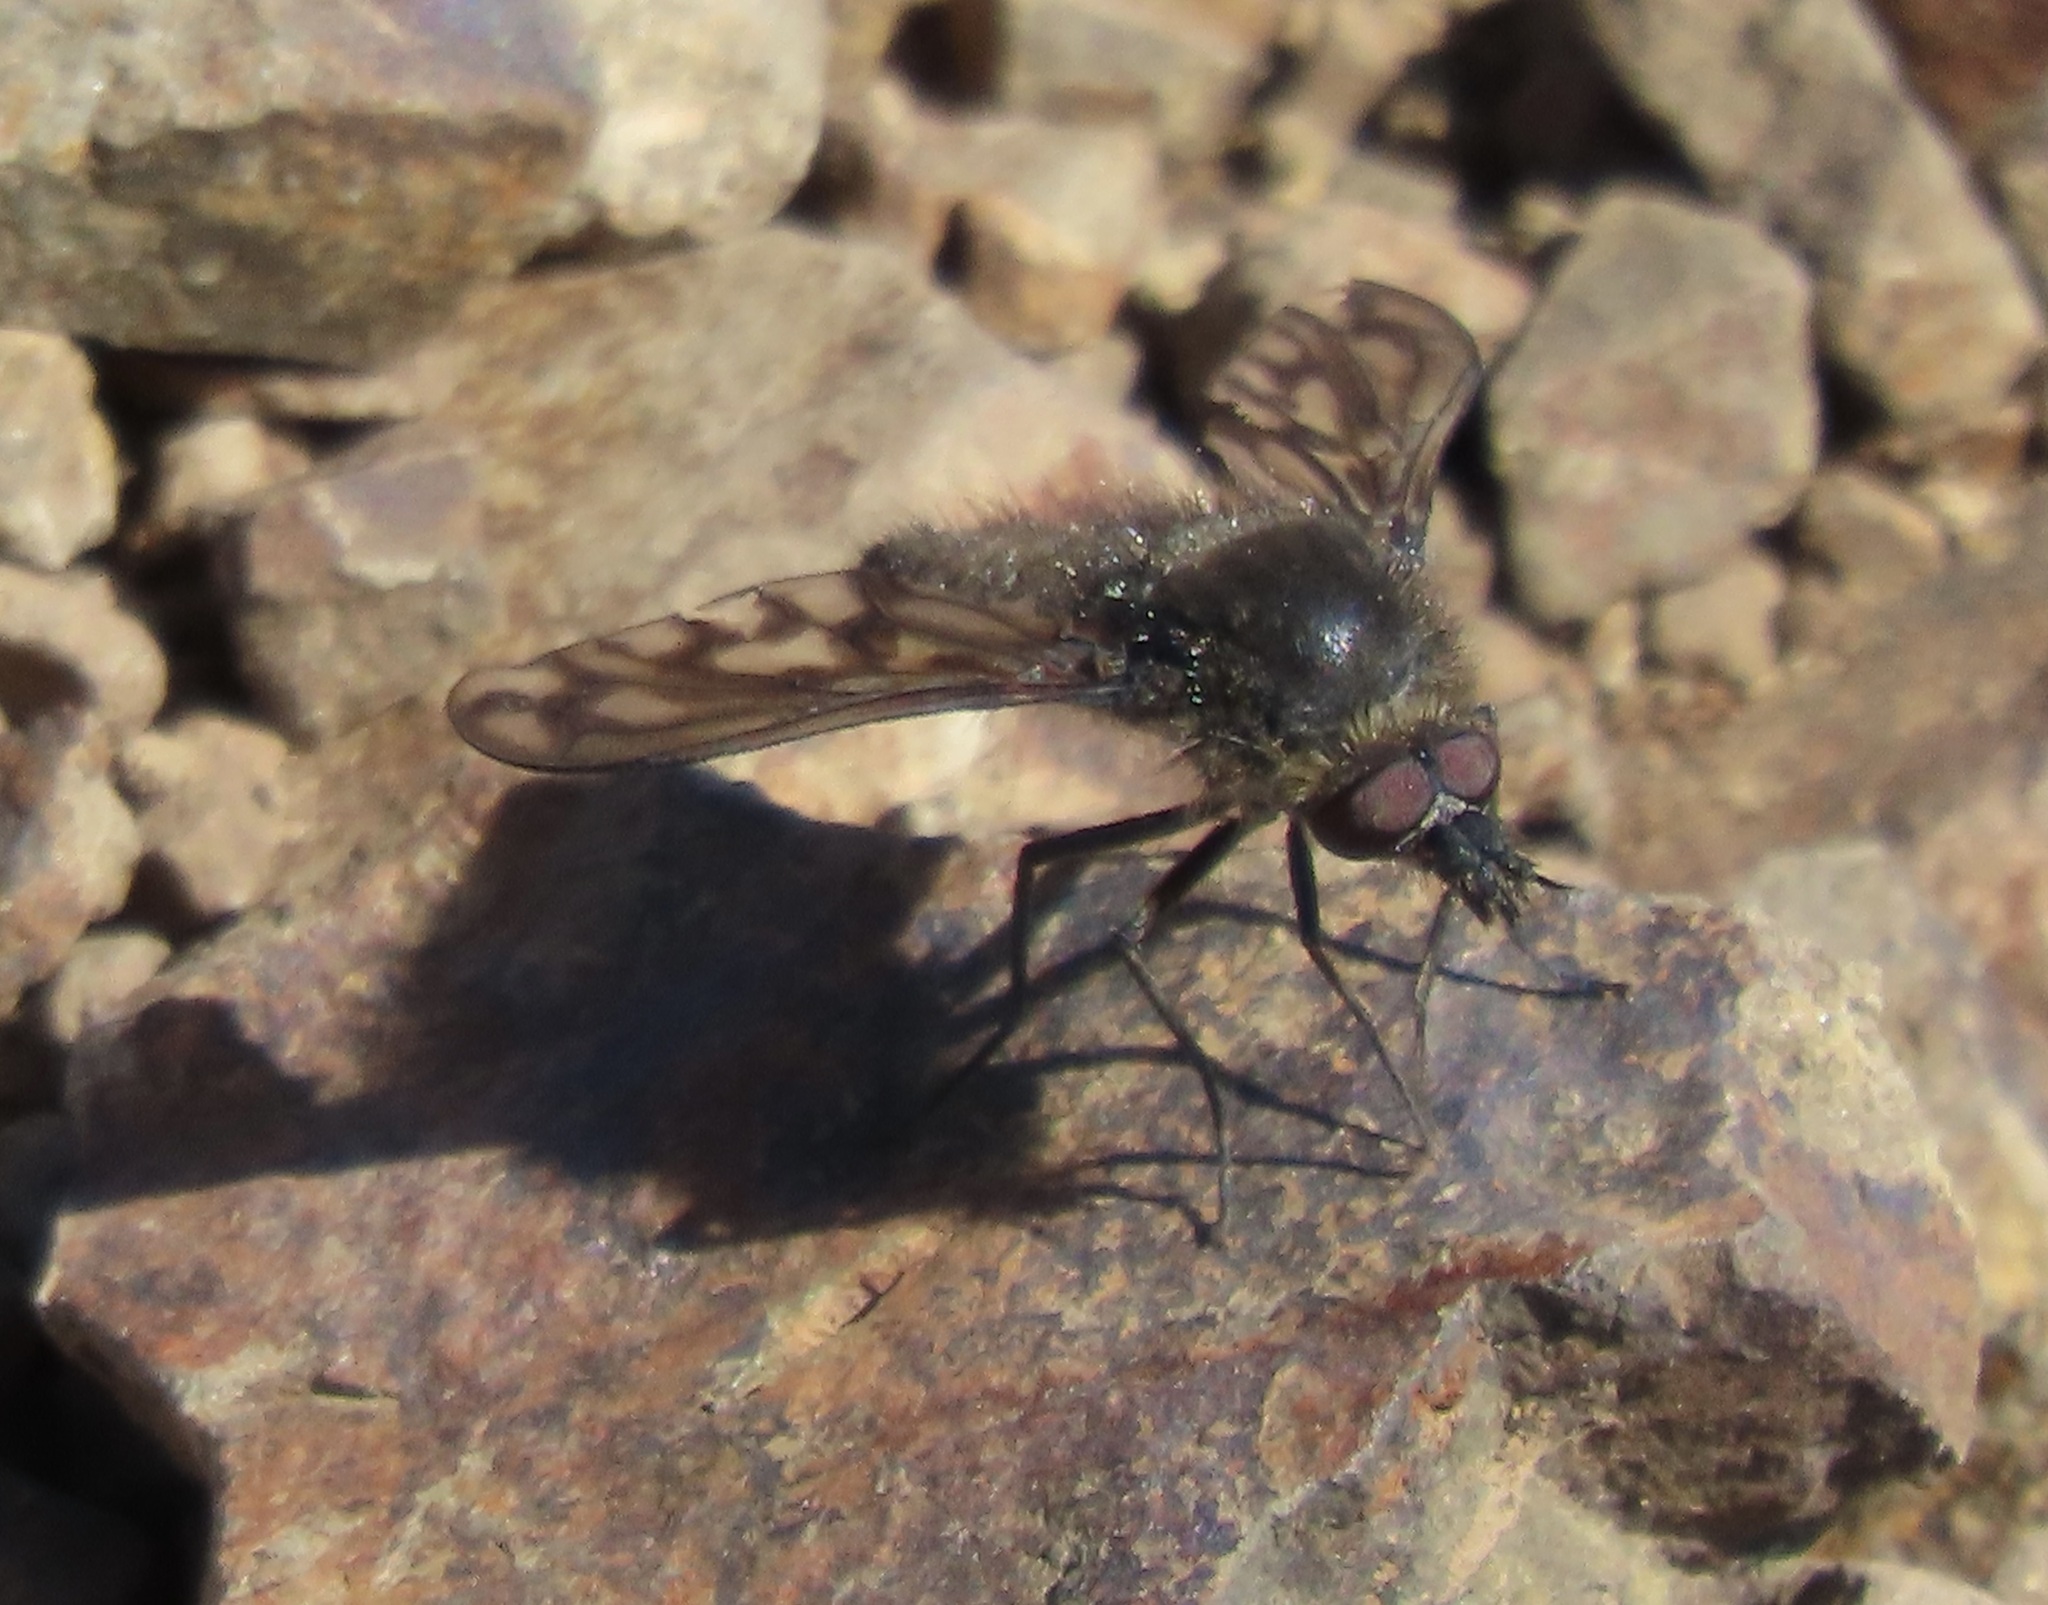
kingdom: Animalia
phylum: Arthropoda
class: Insecta
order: Diptera
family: Bombyliidae
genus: Conophorus
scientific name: Conophorus fenestratus
